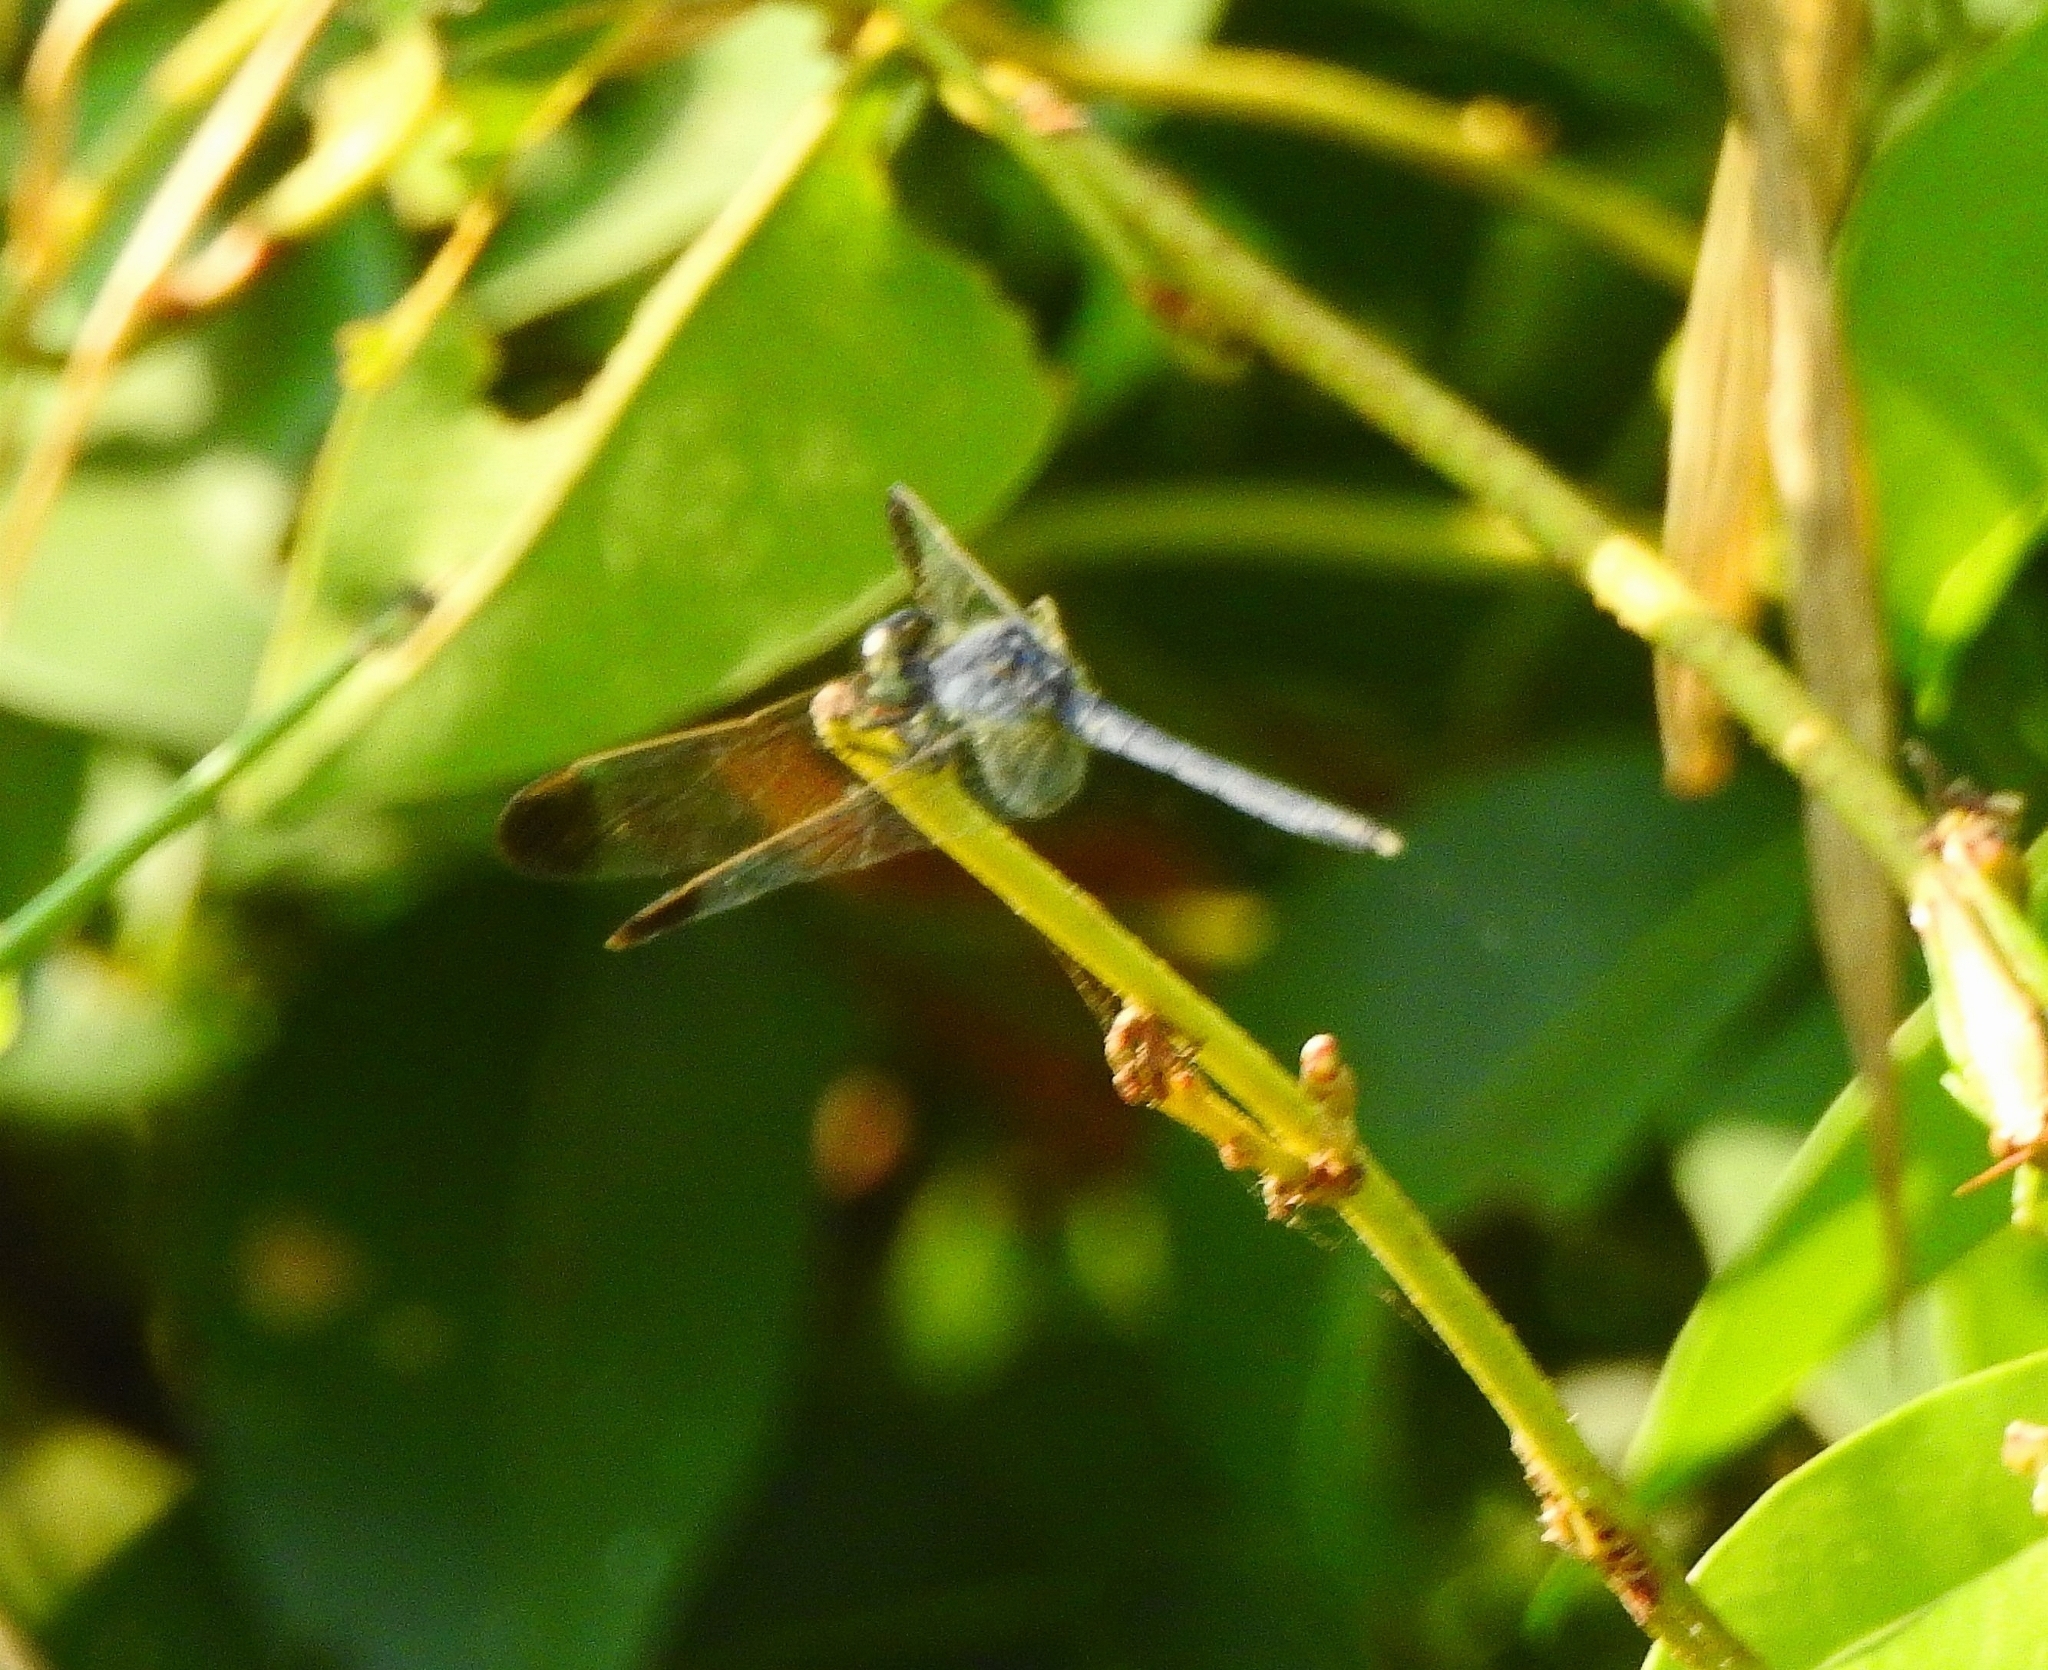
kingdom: Animalia
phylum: Arthropoda
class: Insecta
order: Odonata
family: Libellulidae
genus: Diplacodes
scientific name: Diplacodes nebulosa
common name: Black-tipped percher
